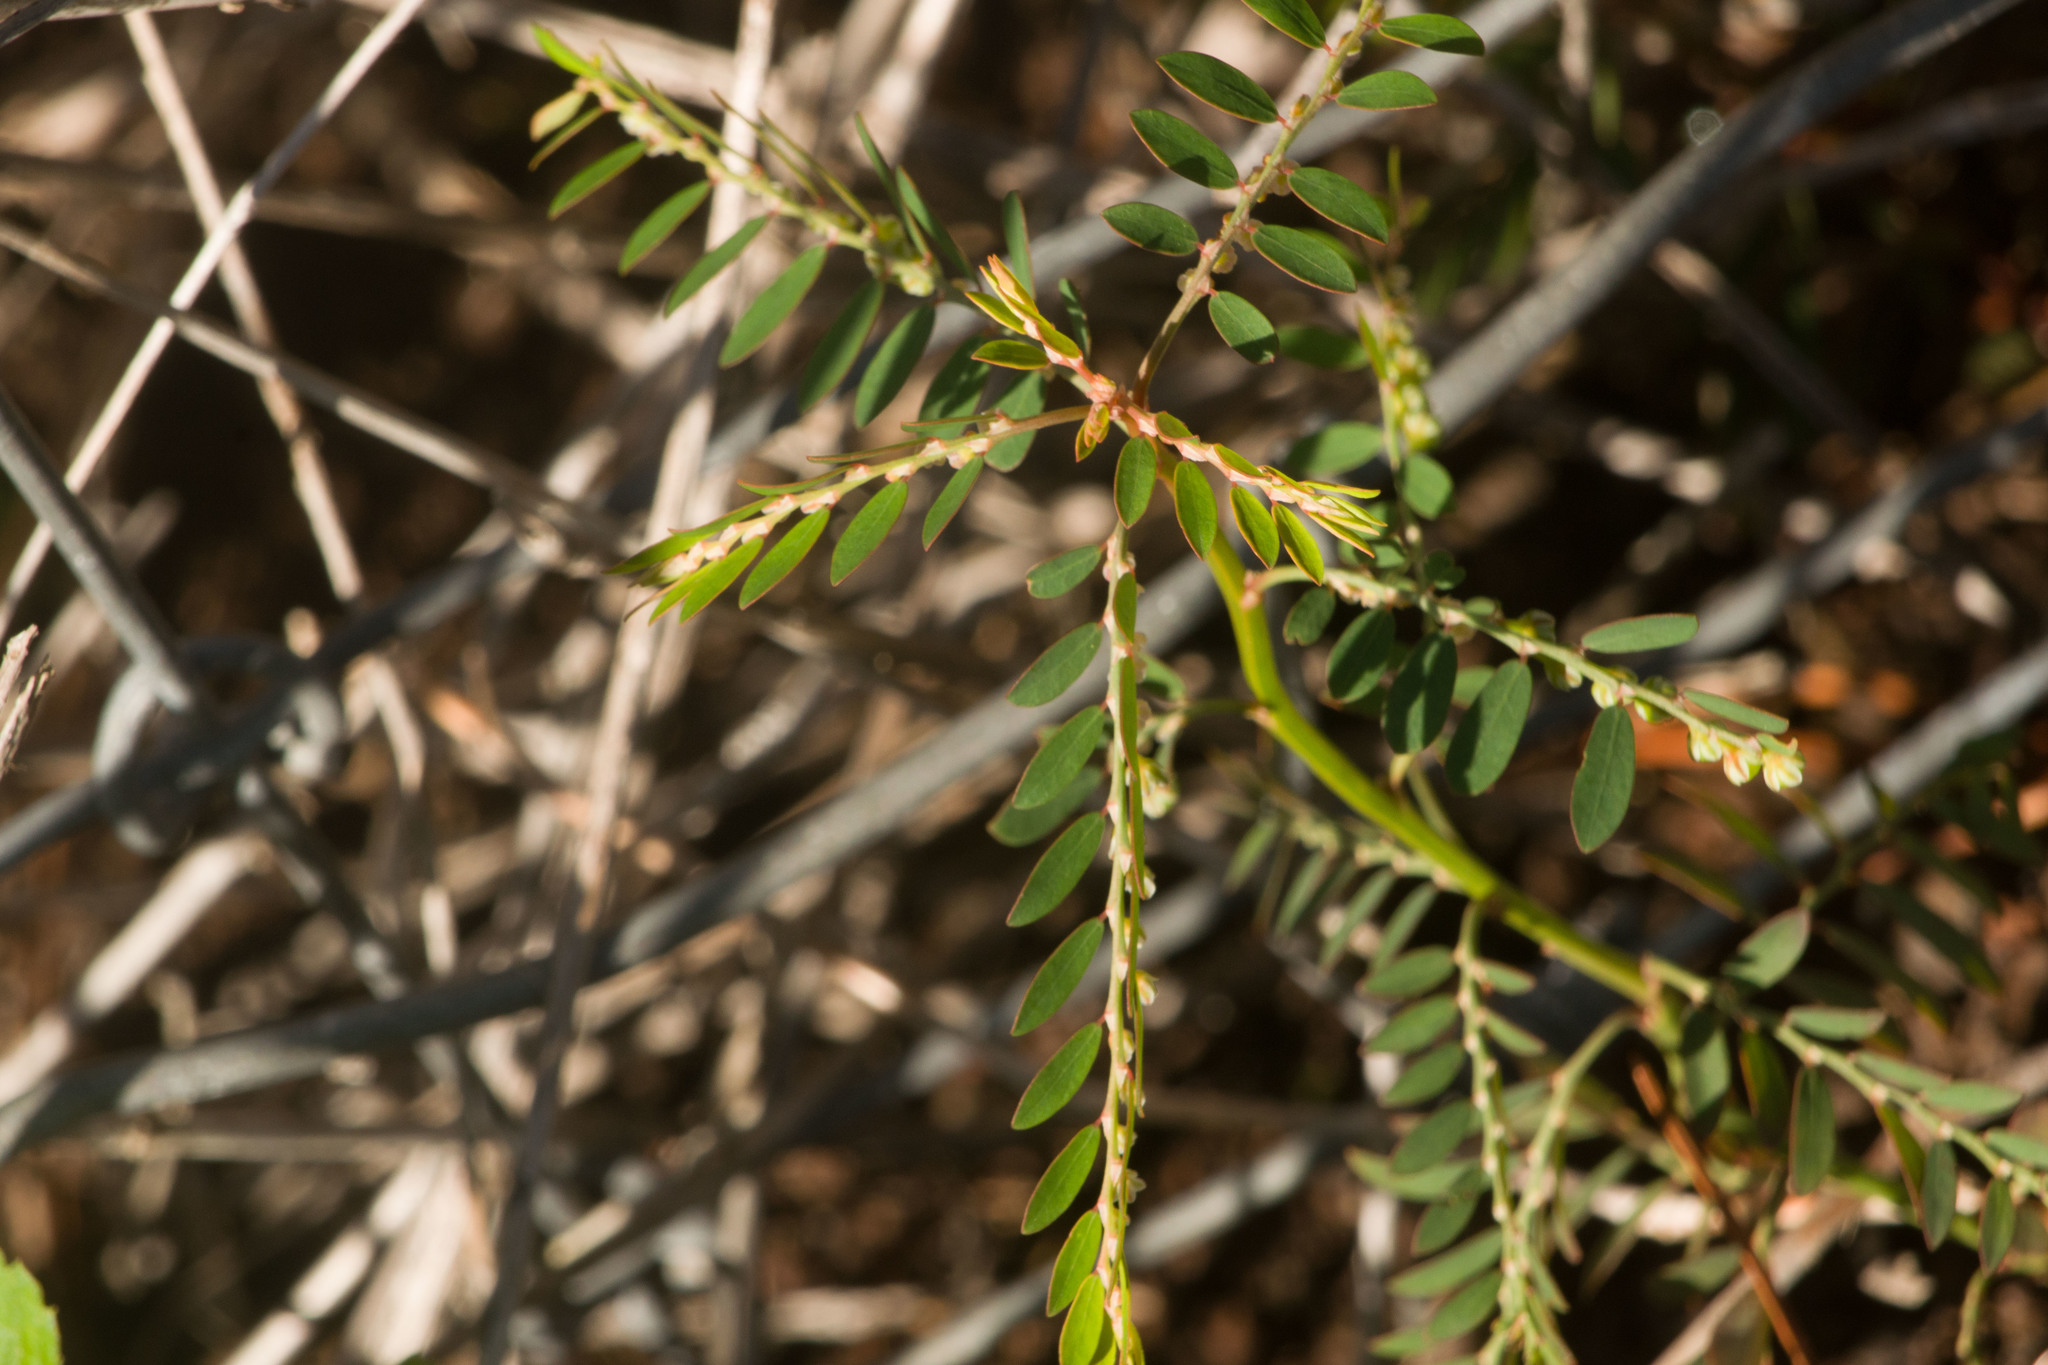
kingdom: Plantae
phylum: Tracheophyta
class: Magnoliopsida
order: Malpighiales
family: Phyllanthaceae
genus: Phyllanthus
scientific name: Phyllanthus debilis
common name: Niruri
